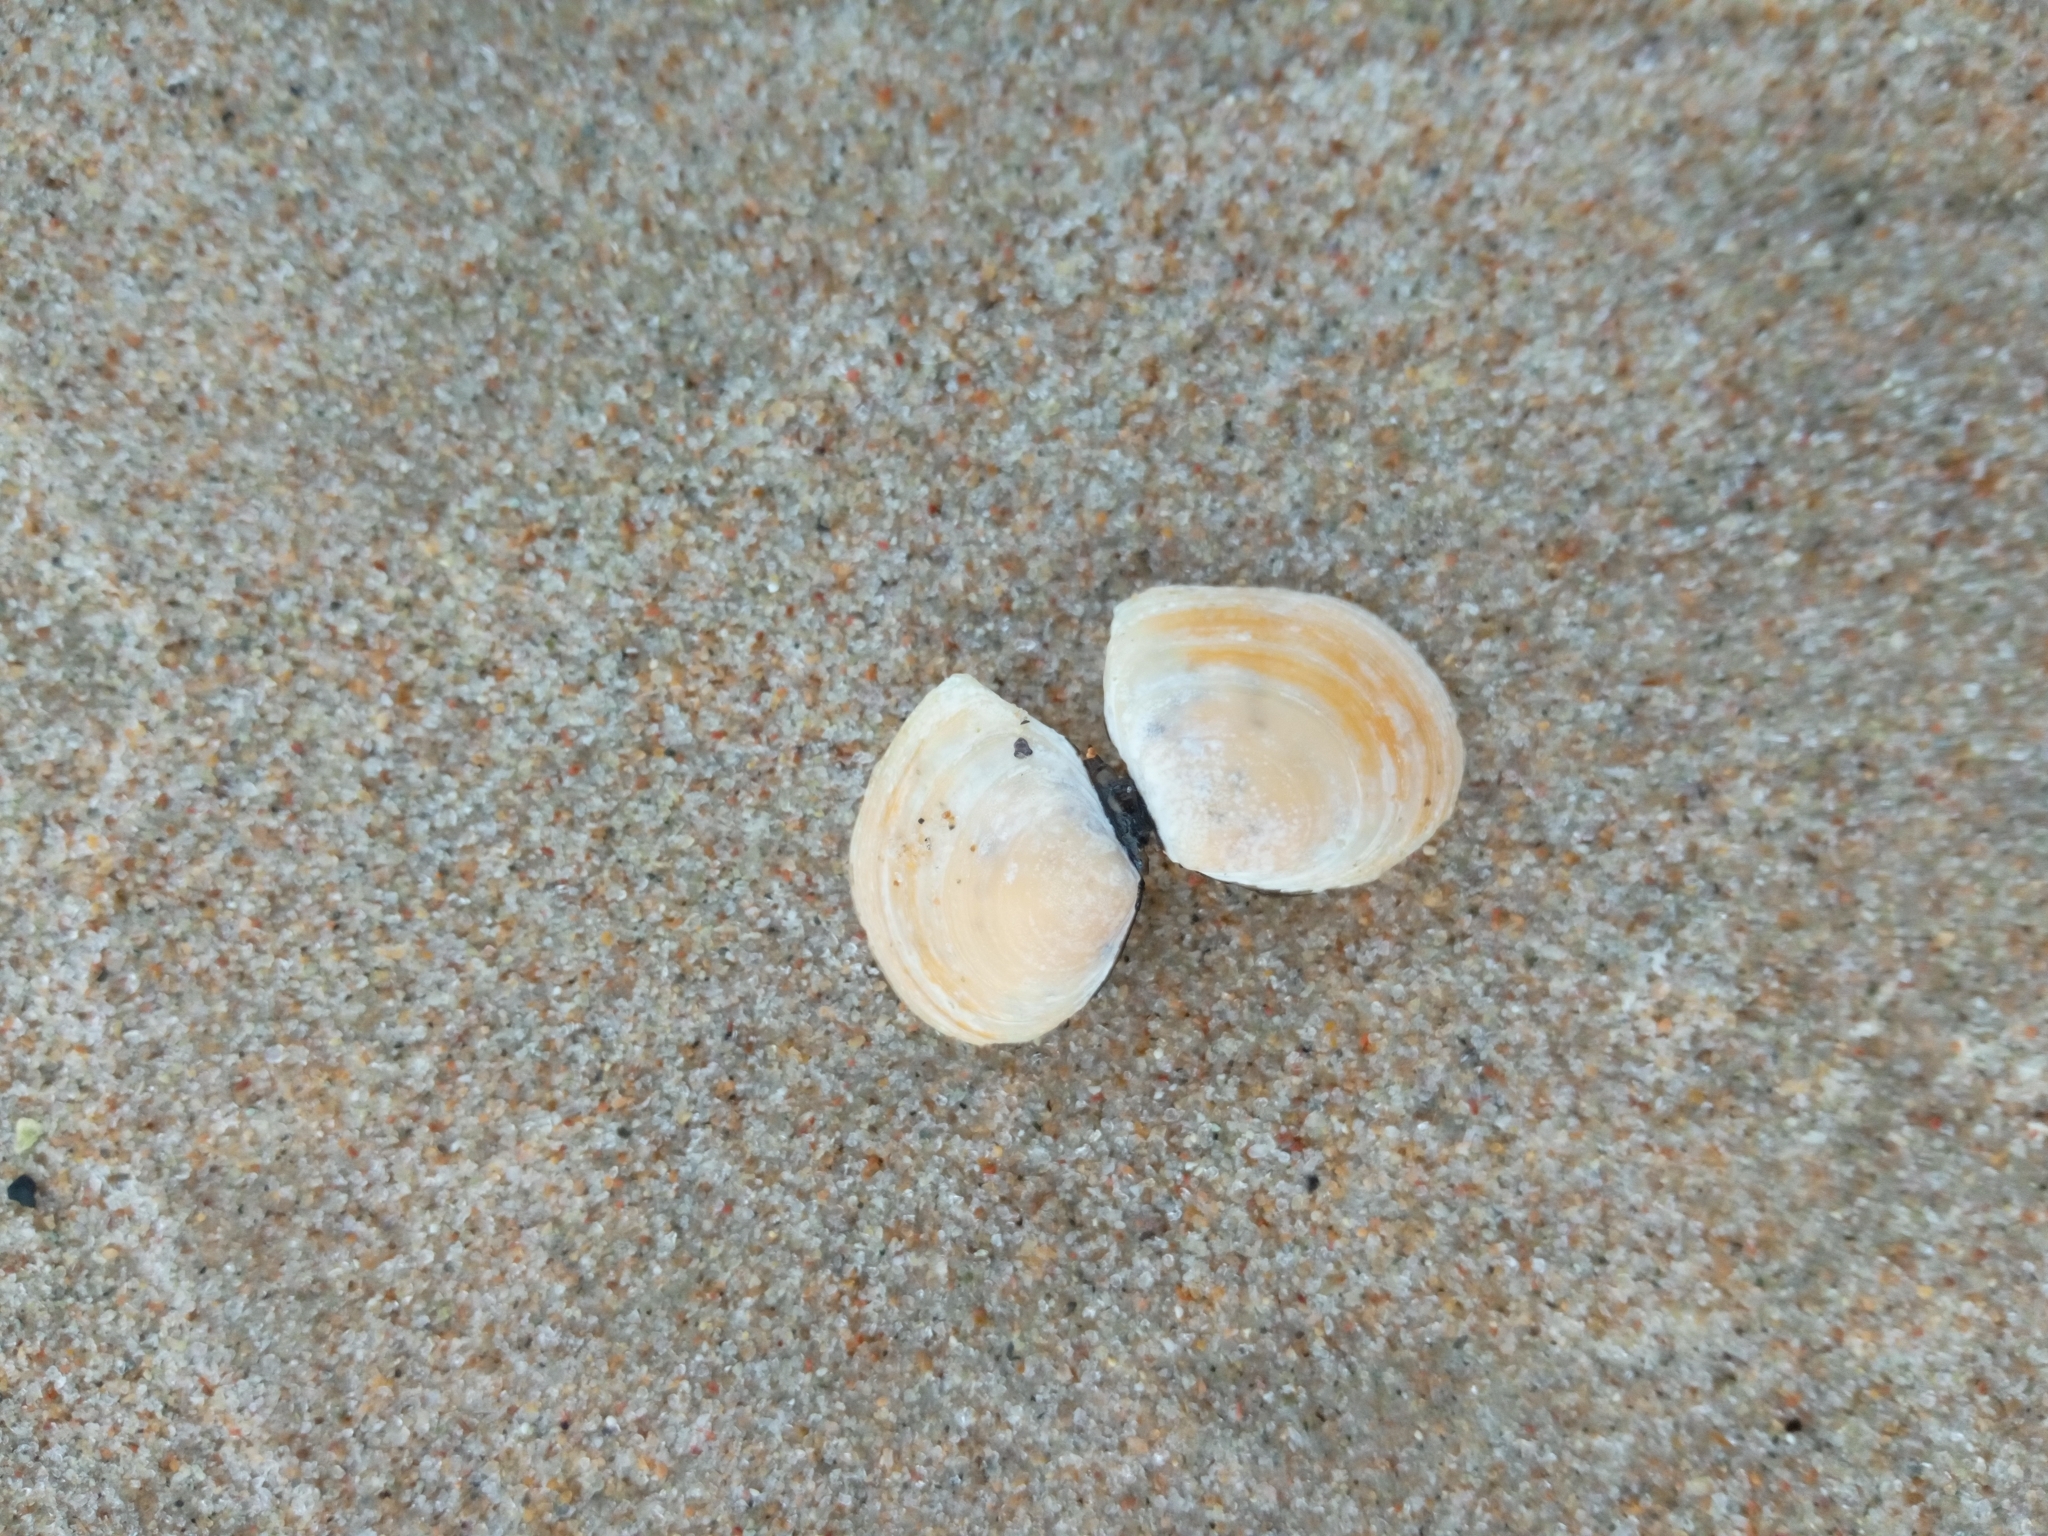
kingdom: Animalia
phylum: Mollusca
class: Bivalvia
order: Cardiida
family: Tellinidae
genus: Macoma
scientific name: Macoma balthica
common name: Baltic tellin
